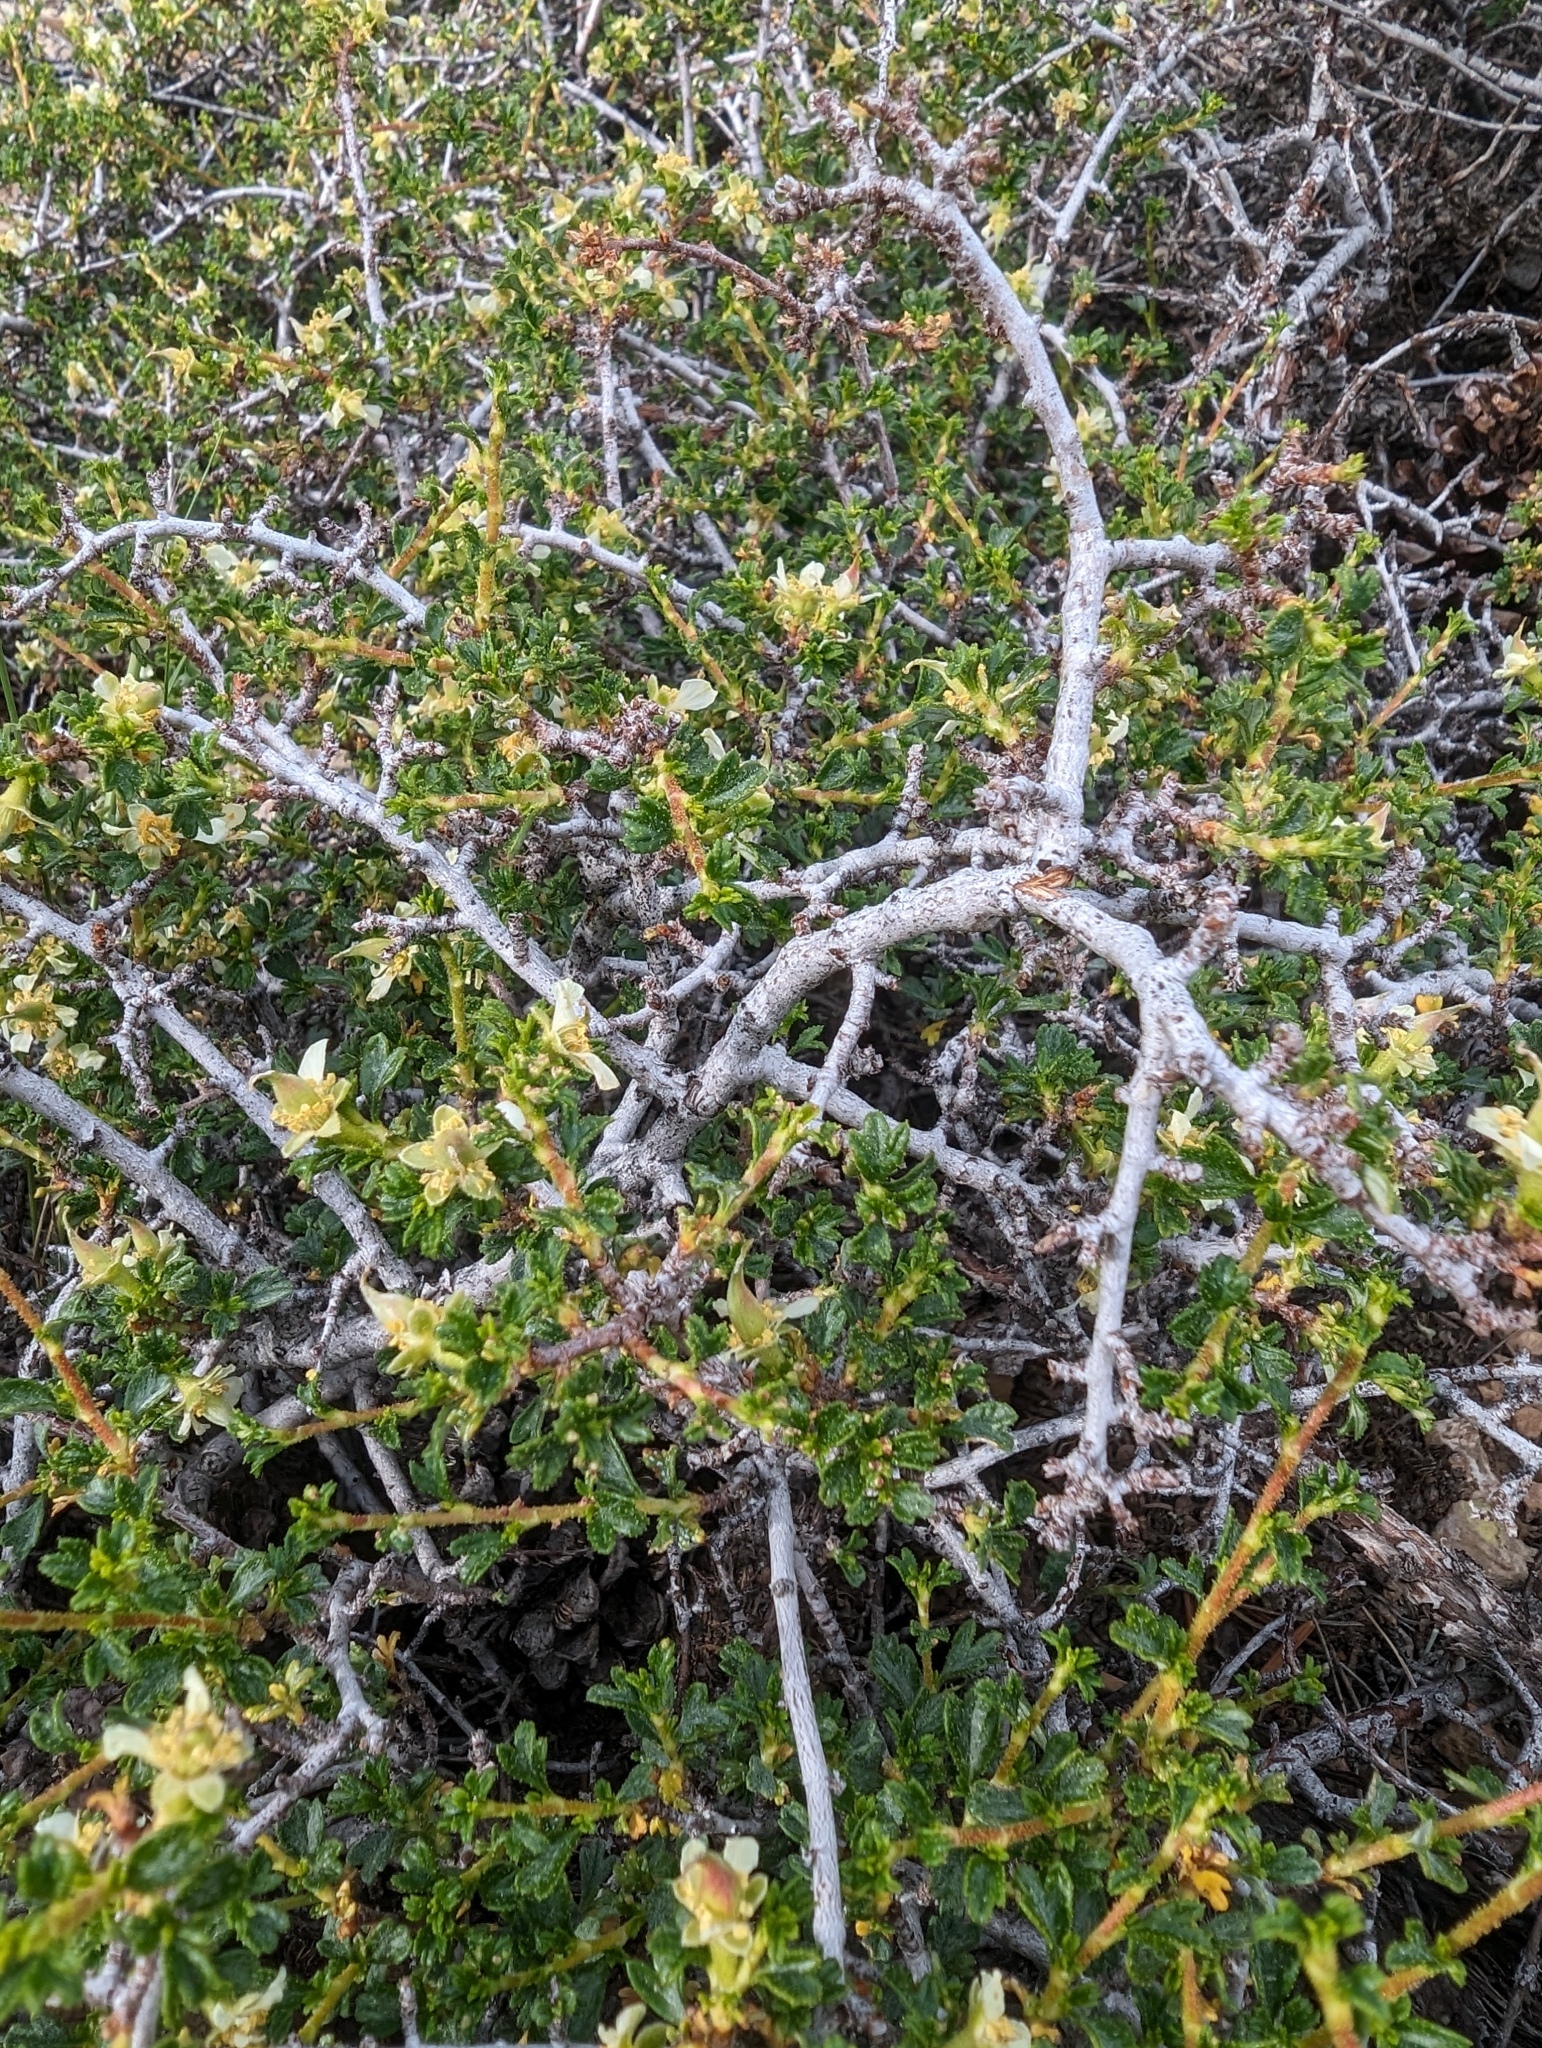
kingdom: Plantae
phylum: Tracheophyta
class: Magnoliopsida
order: Rosales
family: Rosaceae
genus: Purshia
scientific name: Purshia tridentata
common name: Antelope bitterbrush
